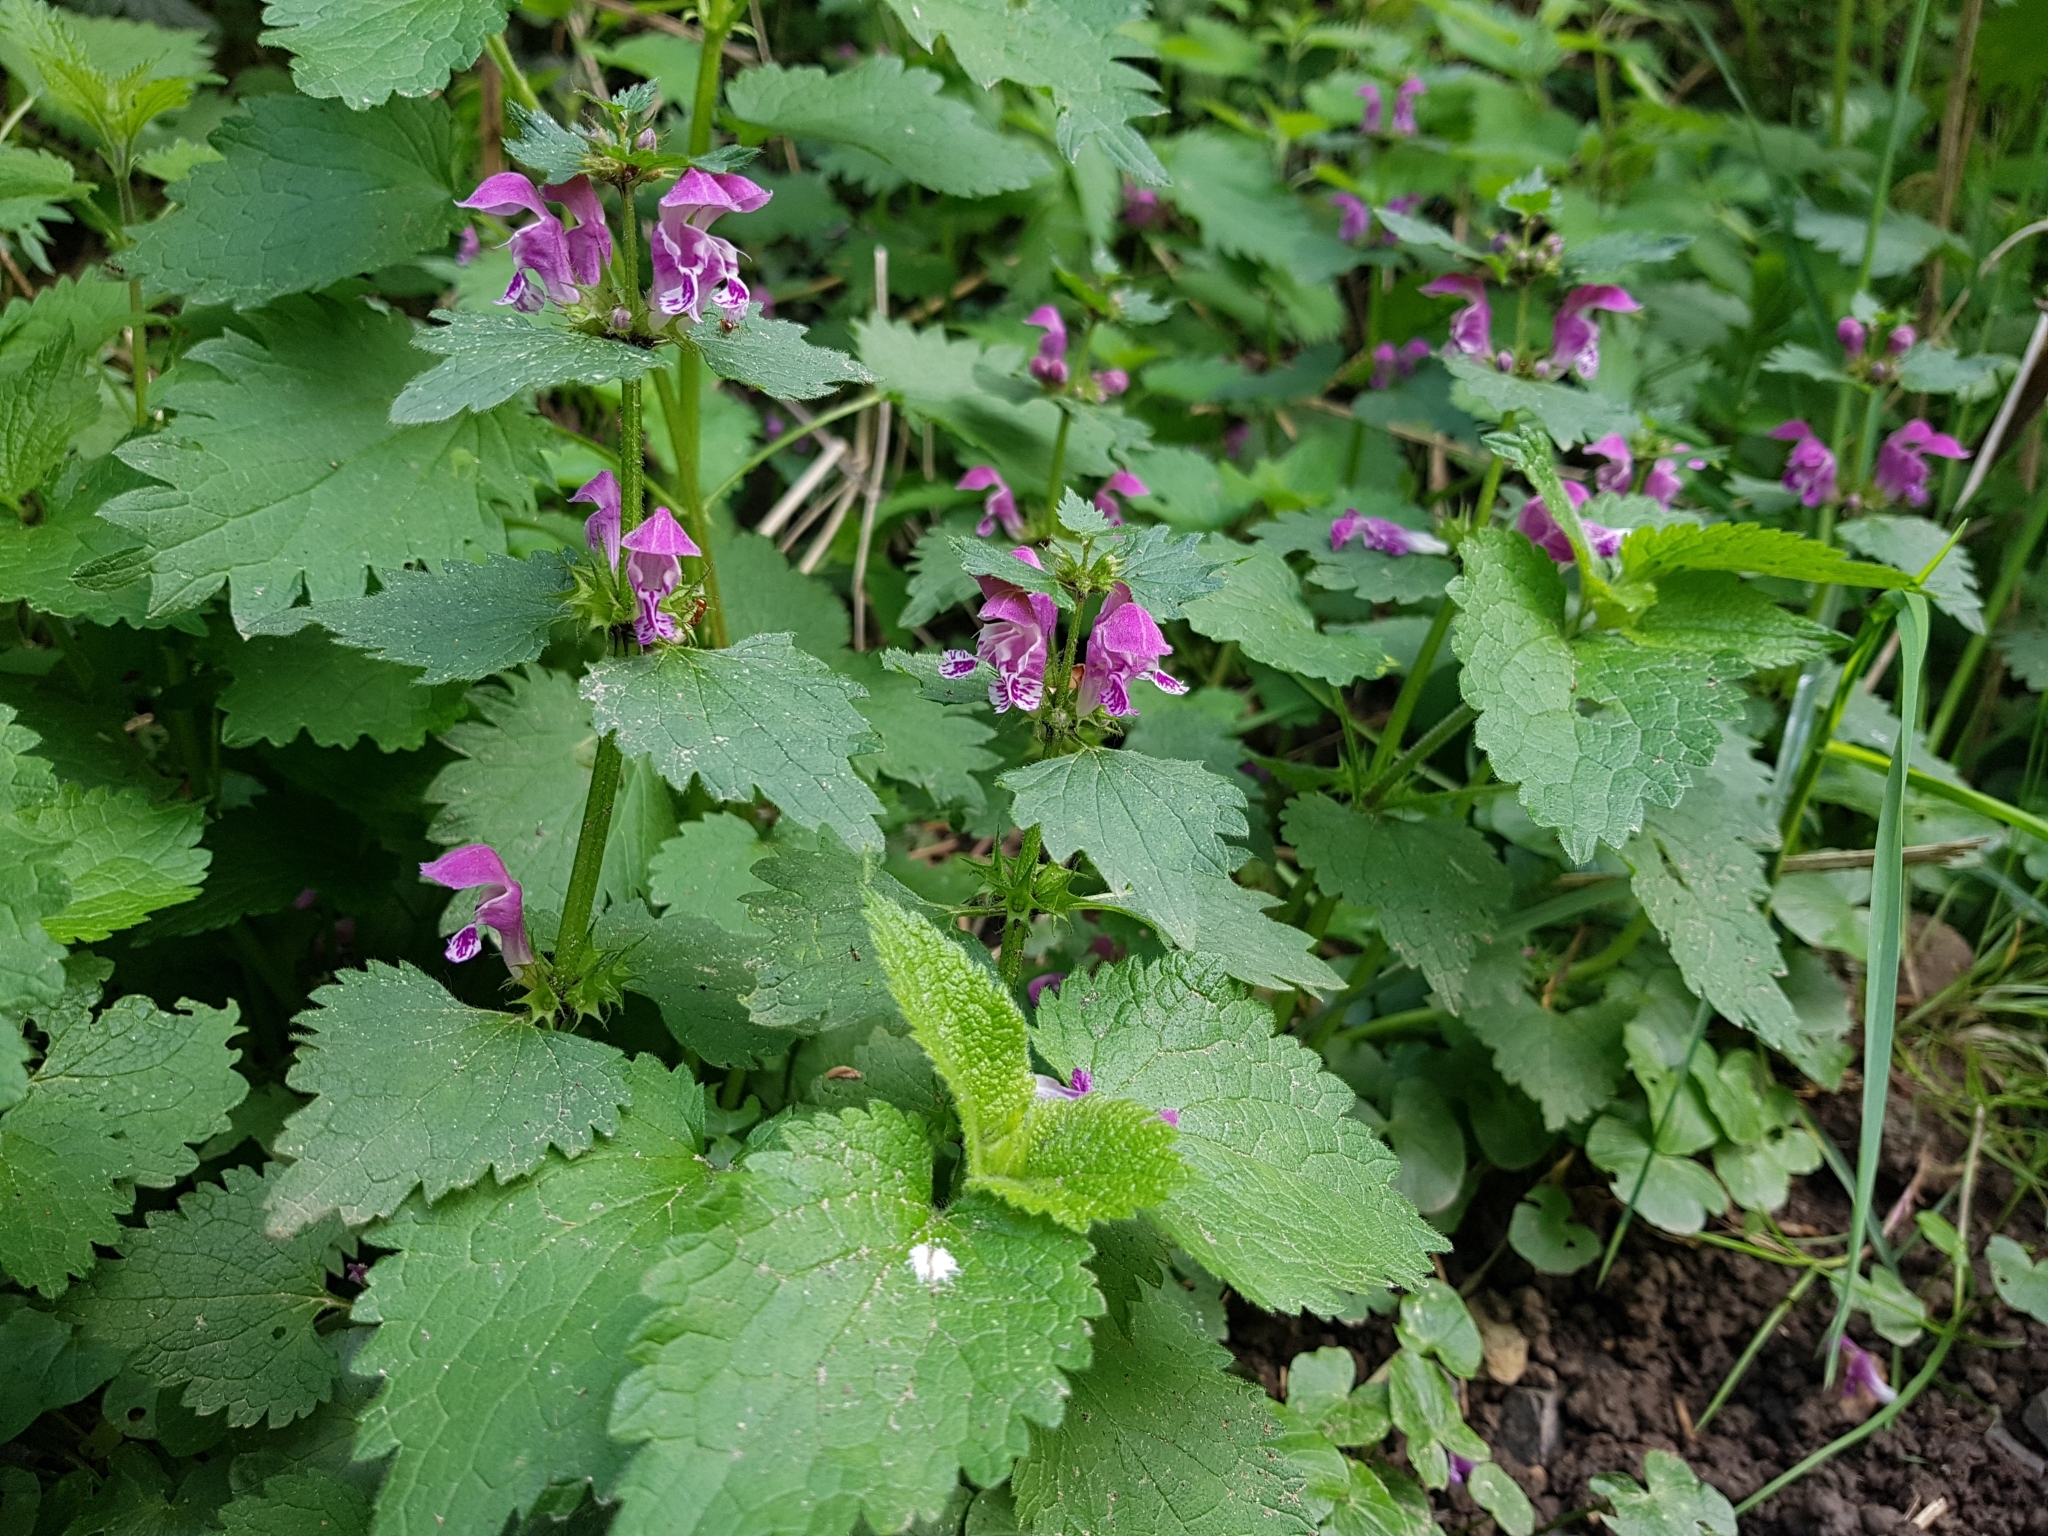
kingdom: Plantae
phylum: Tracheophyta
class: Magnoliopsida
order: Lamiales
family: Lamiaceae
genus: Lamium
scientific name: Lamium maculatum
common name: Spotted dead-nettle
